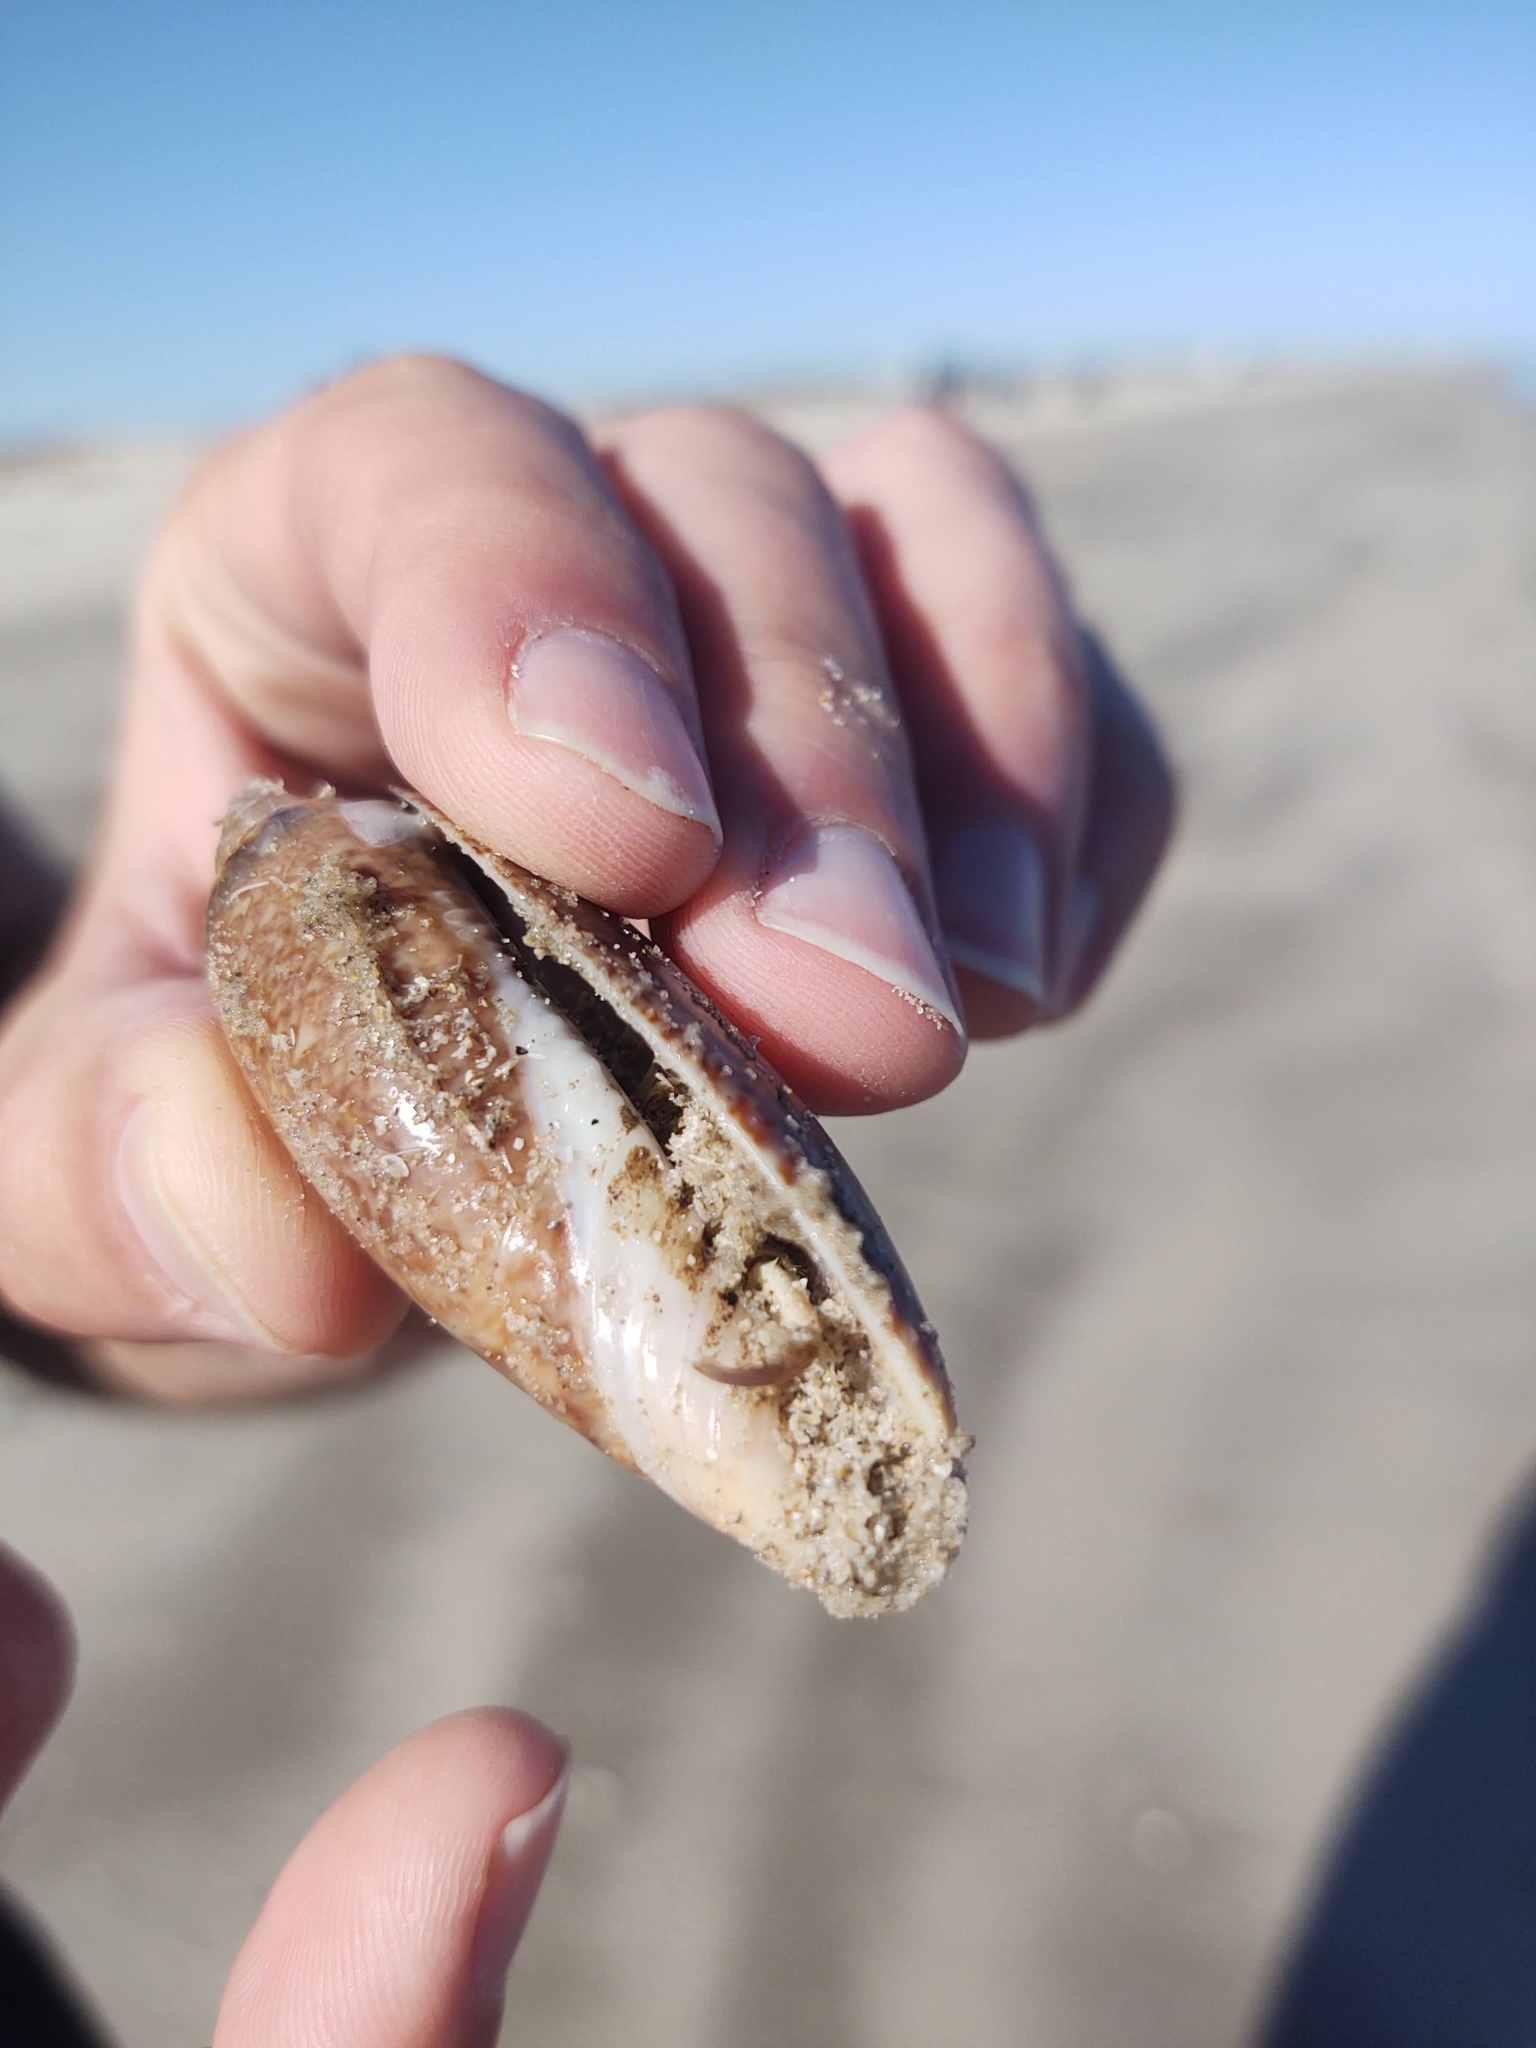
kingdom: Animalia
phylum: Mollusca
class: Gastropoda
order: Neogastropoda
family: Olividae
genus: Oliva
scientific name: Oliva sayana
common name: Lettered olive
